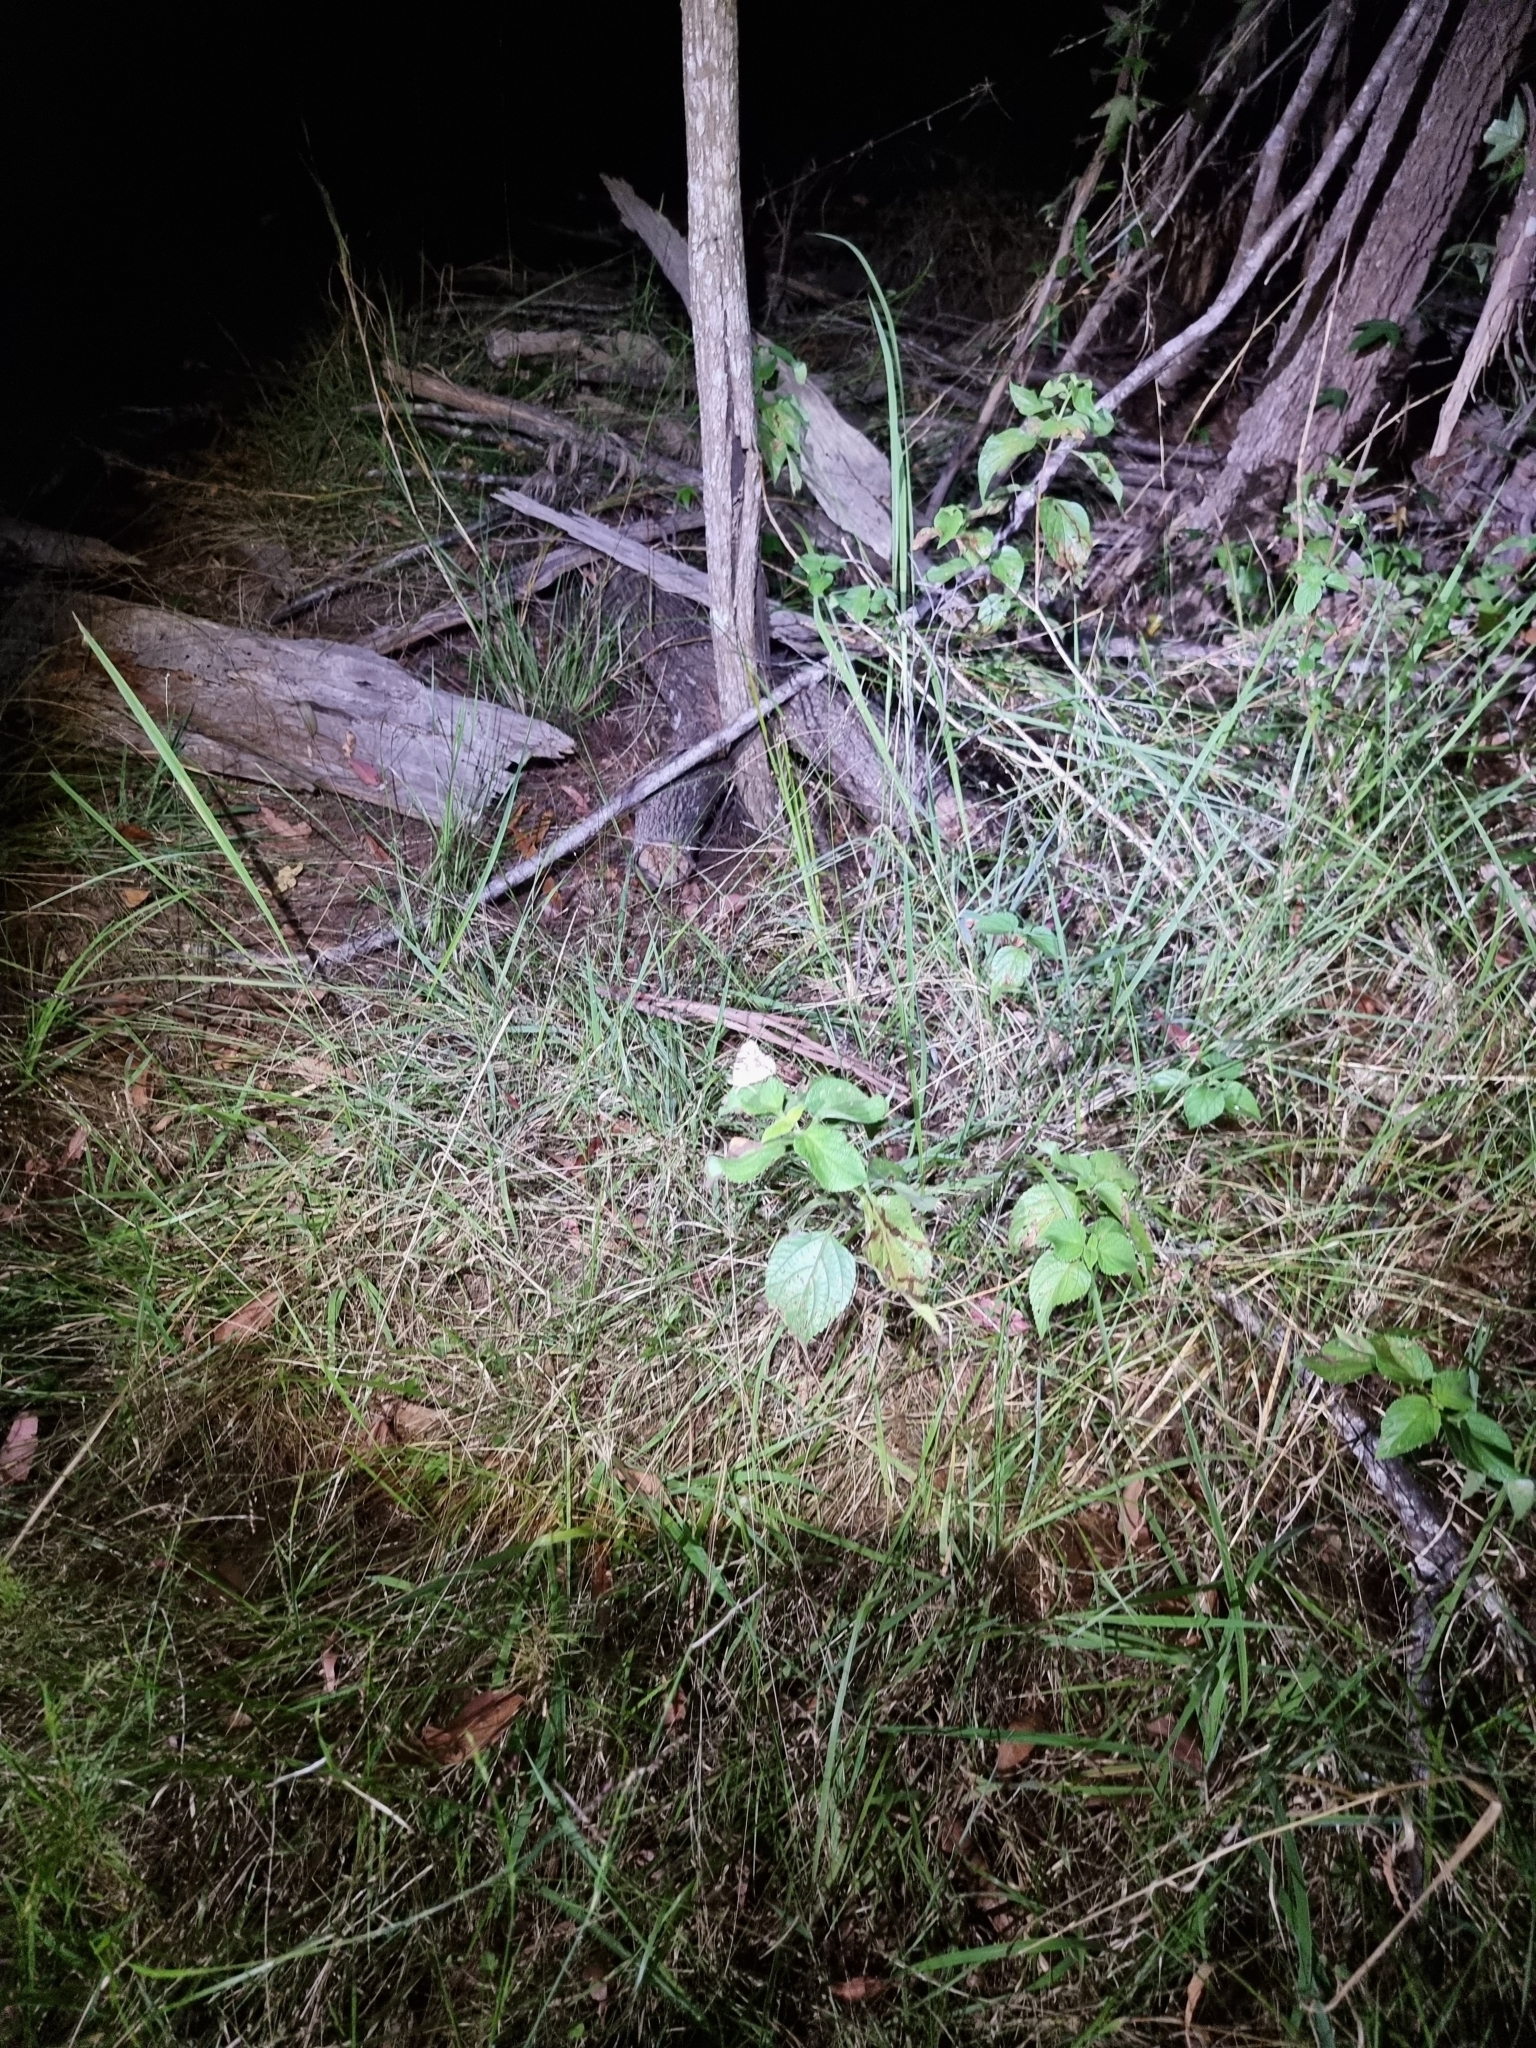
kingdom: Animalia
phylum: Arthropoda
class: Insecta
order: Lepidoptera
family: Nymphalidae
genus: Vanessa
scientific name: Vanessa kershawi
